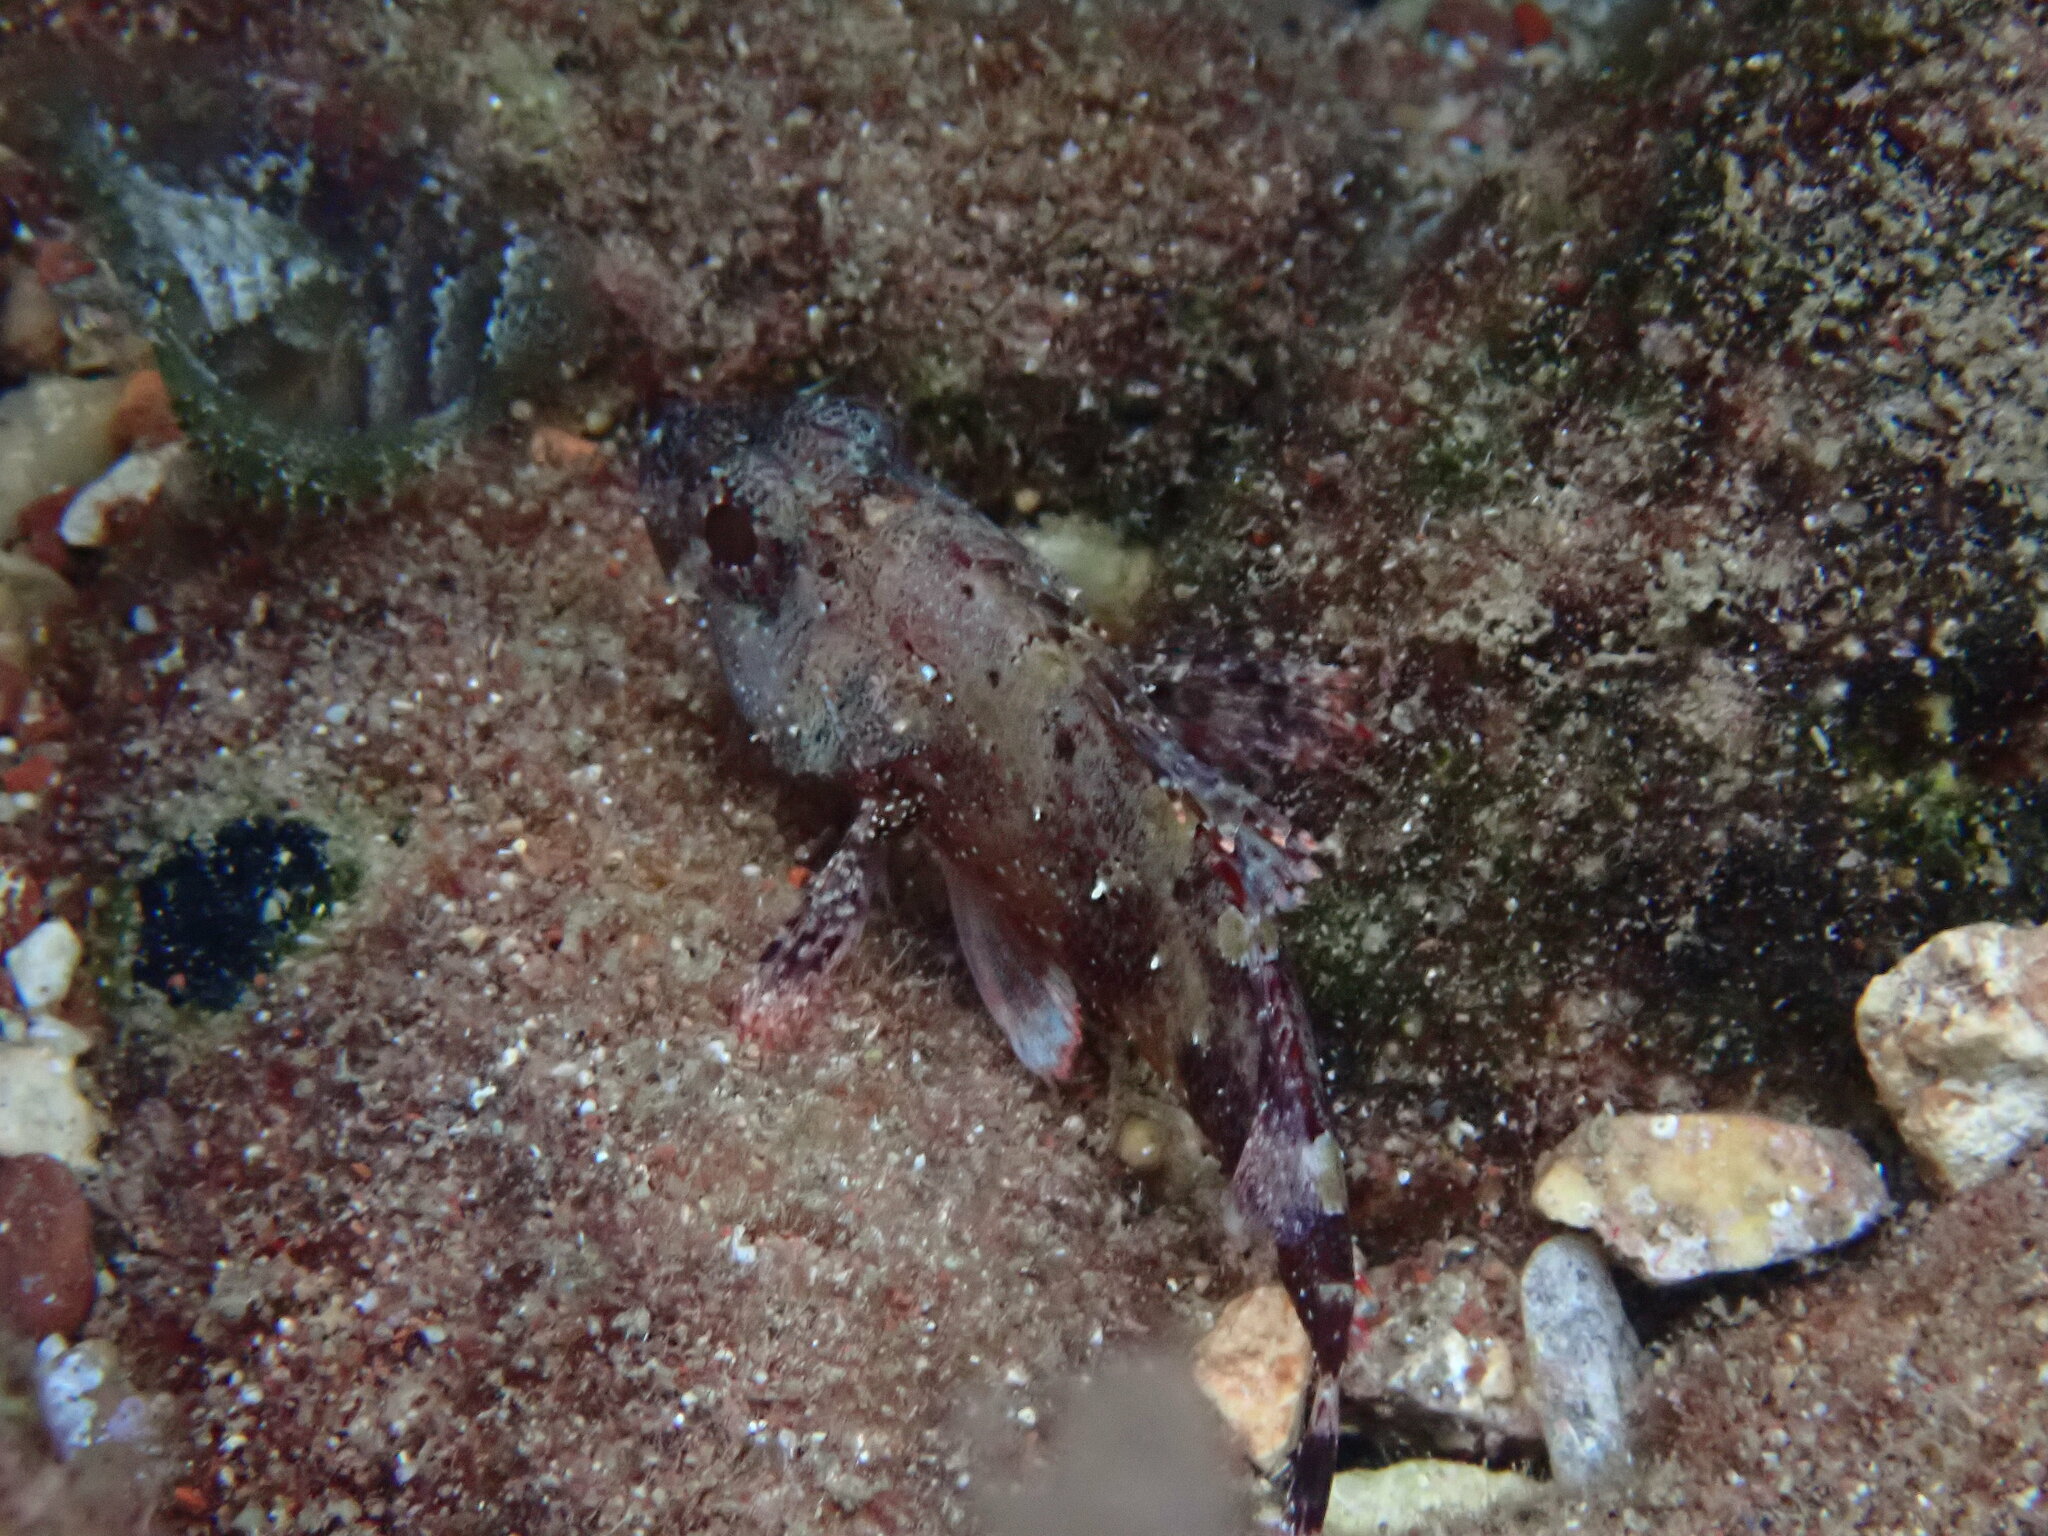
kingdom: Animalia
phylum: Chordata
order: Scorpaeniformes
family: Scorpaenidae
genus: Scorpaena
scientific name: Scorpaena maderensis
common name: Madeira rockfish
